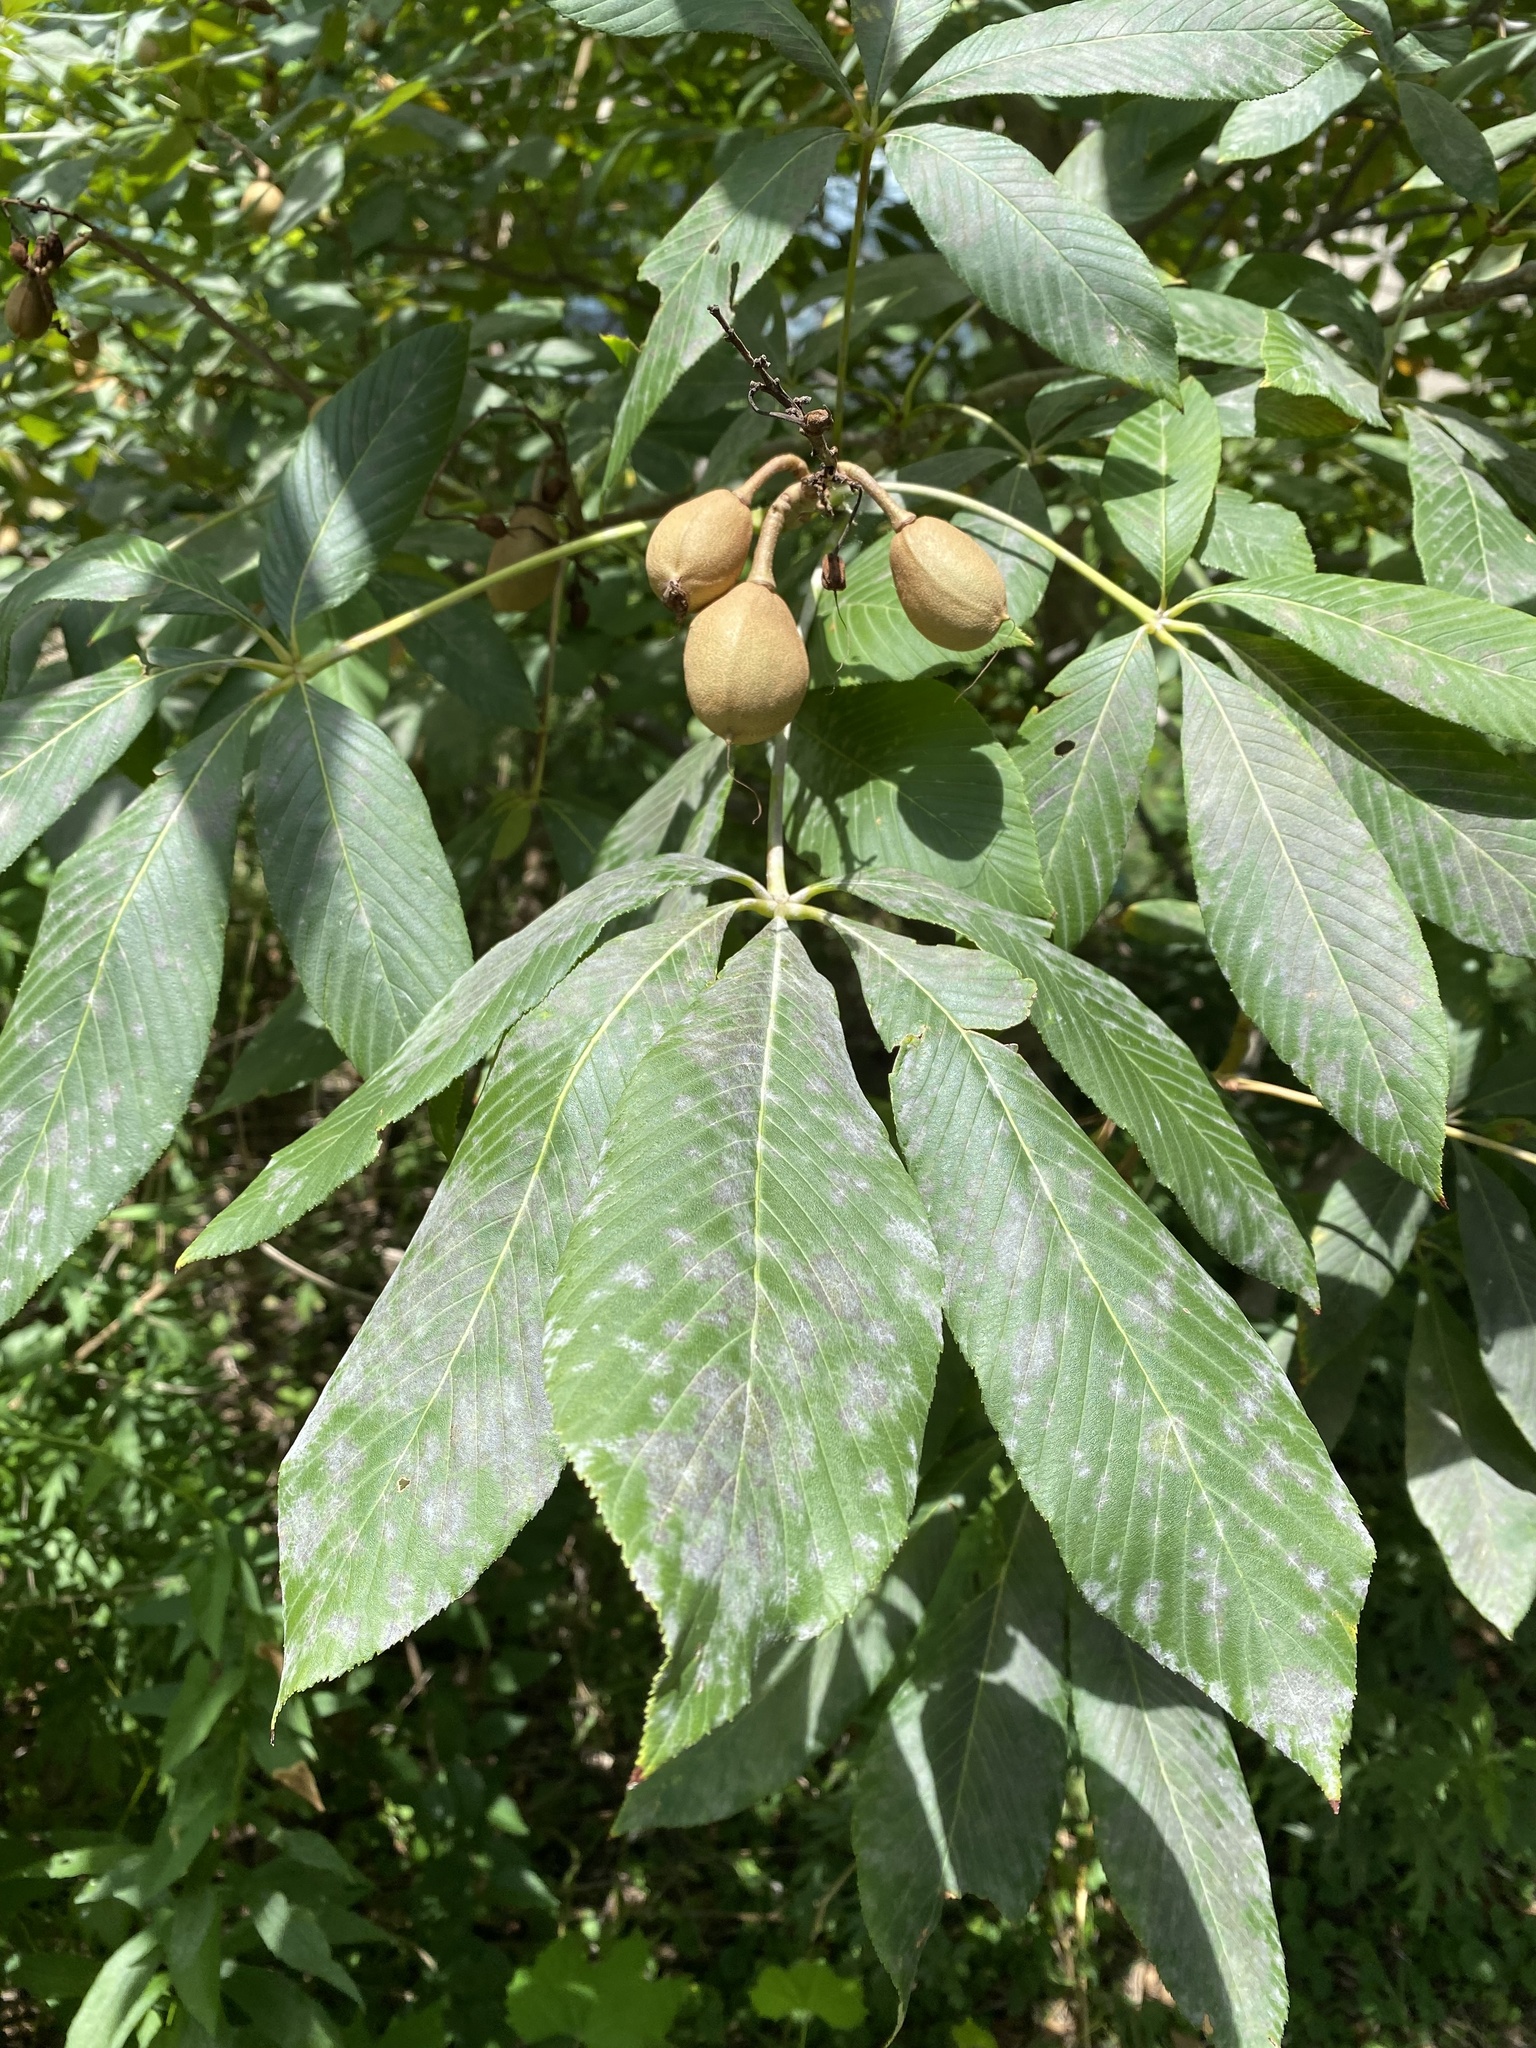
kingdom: Plantae
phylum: Tracheophyta
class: Magnoliopsida
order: Sapindales
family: Sapindaceae
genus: Aesculus
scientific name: Aesculus flava
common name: Yellow buckeye
